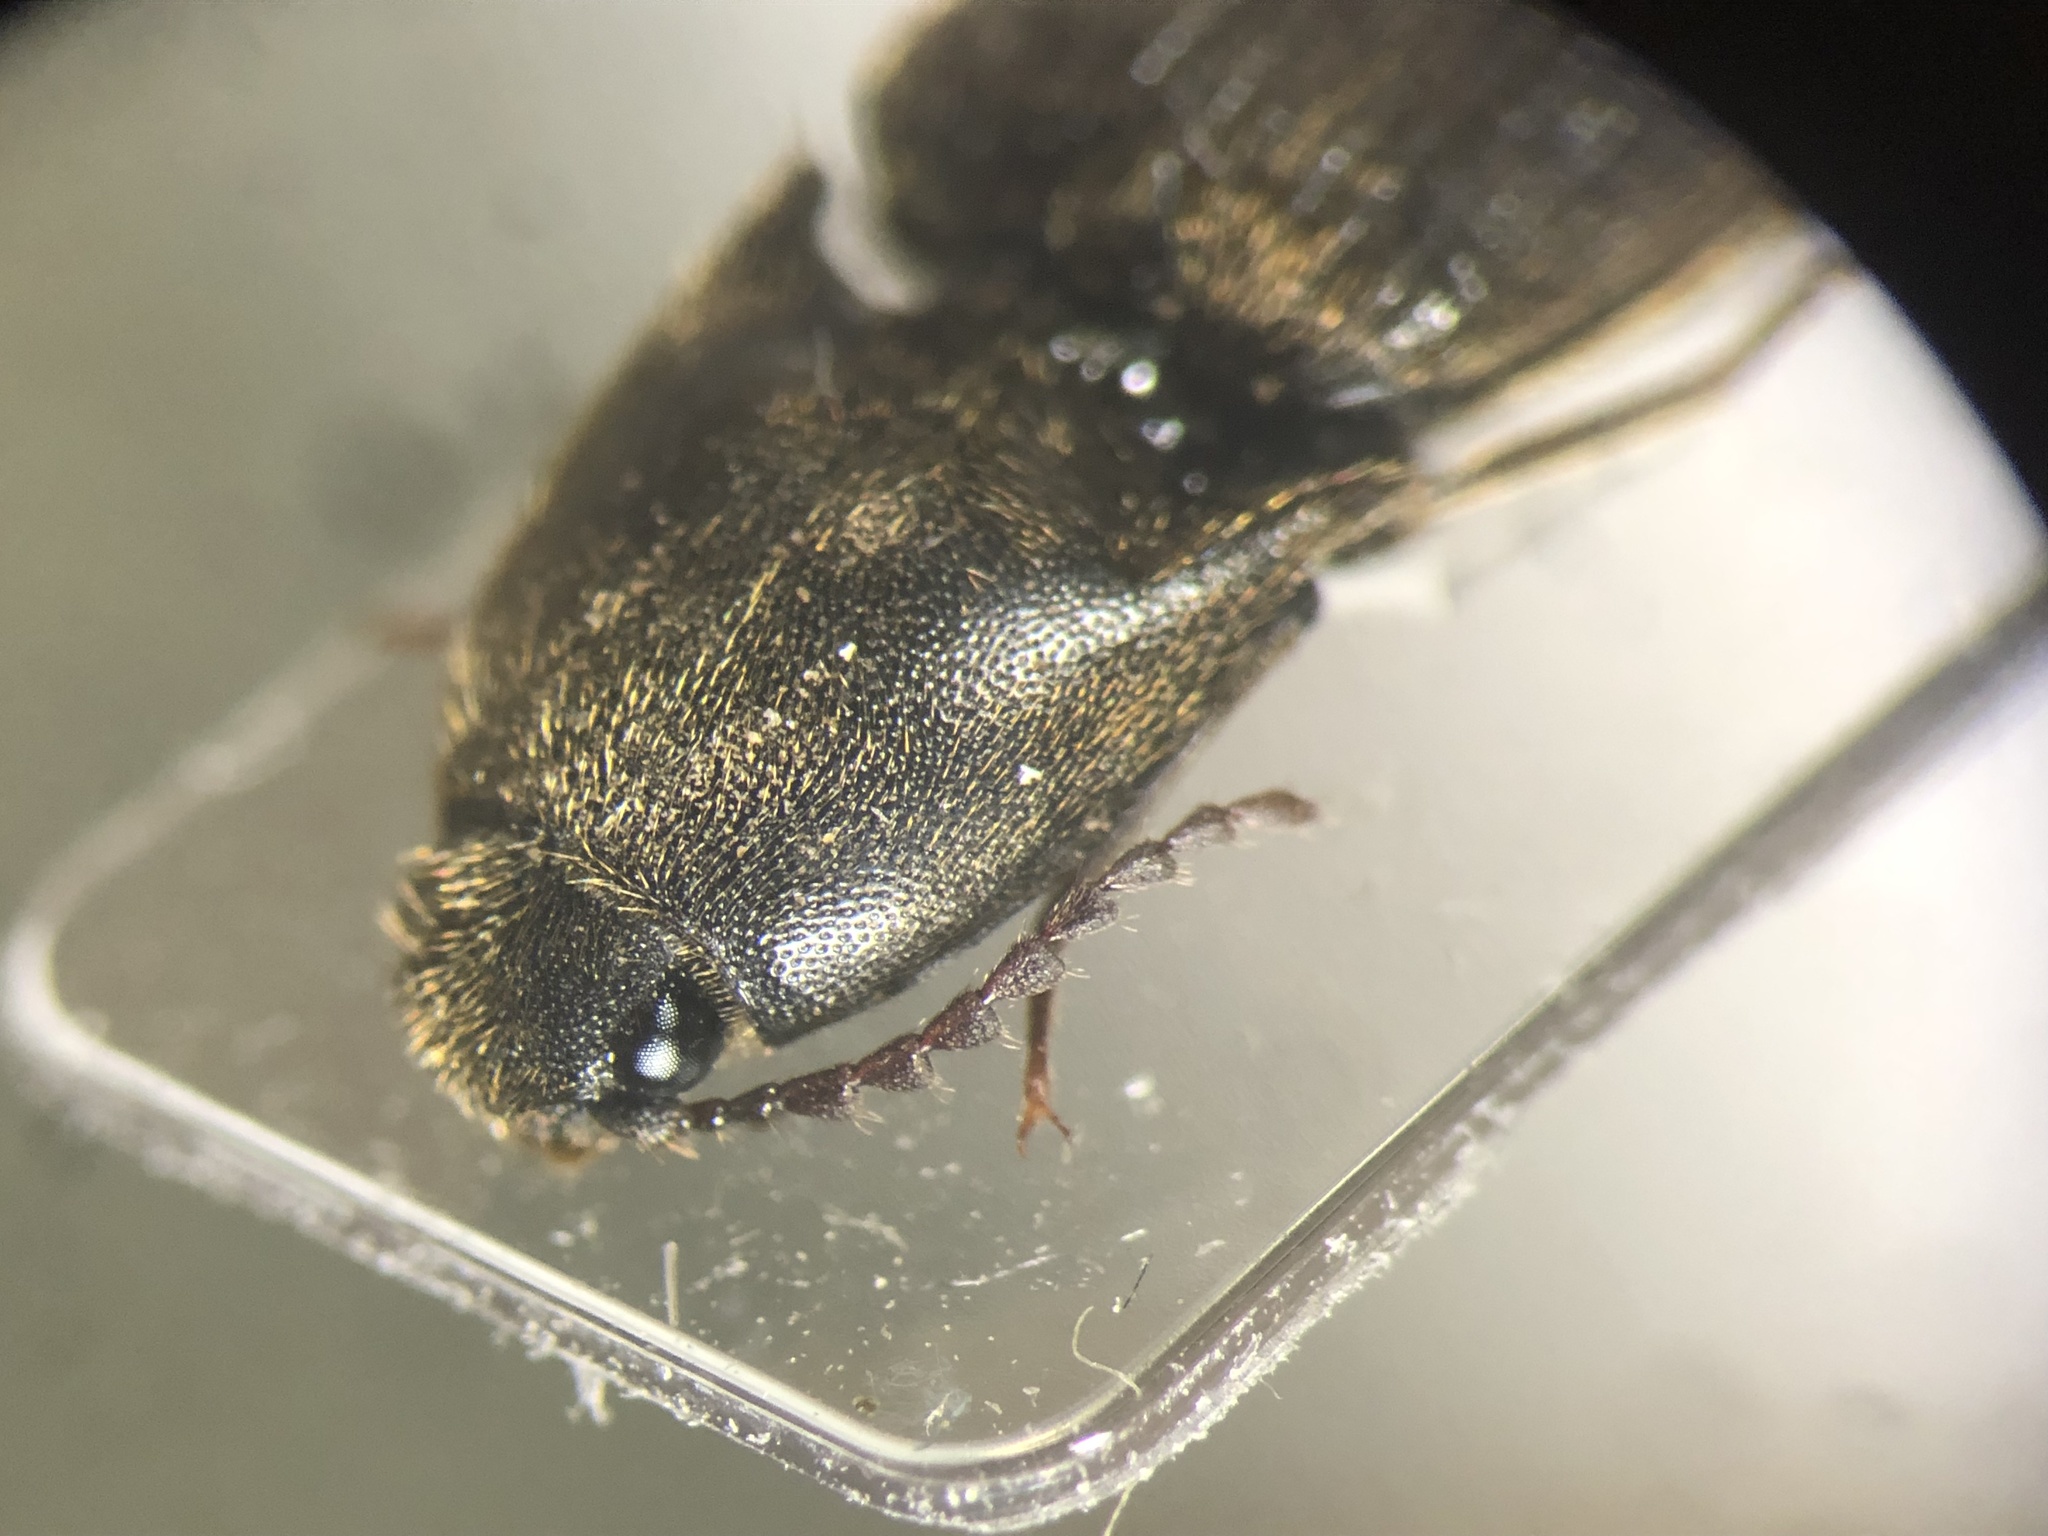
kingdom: Animalia
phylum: Arthropoda
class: Insecta
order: Coleoptera
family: Elateridae
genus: Ampedus
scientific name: Ampedus luctuosus
